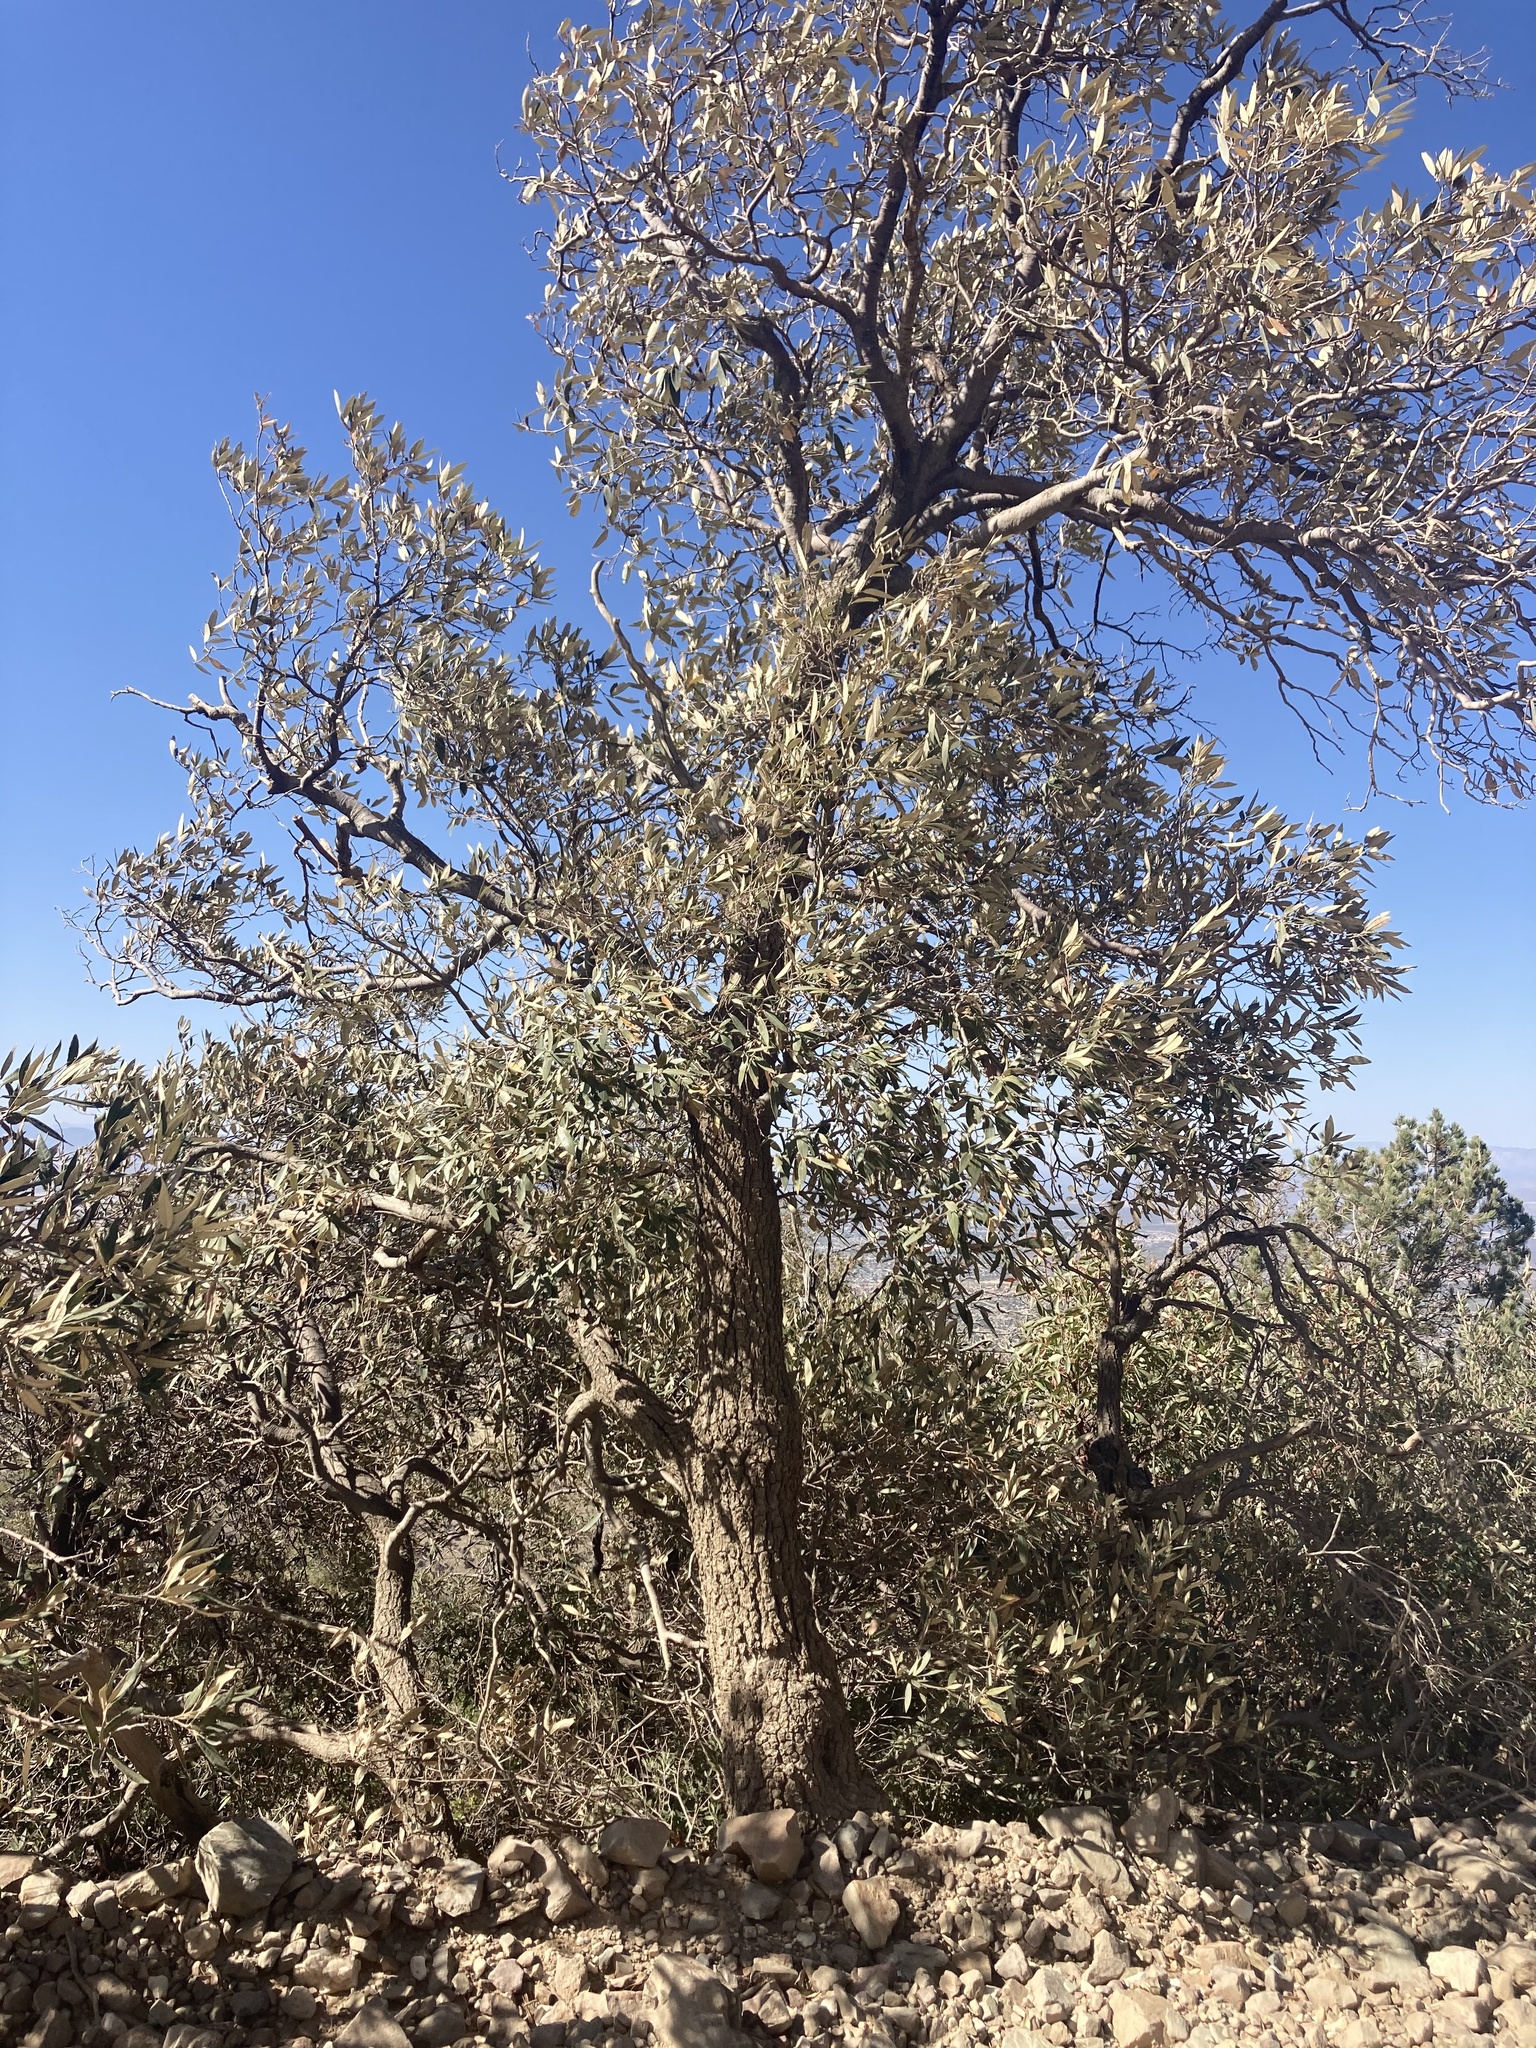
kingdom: Plantae
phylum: Tracheophyta
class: Magnoliopsida
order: Fagales
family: Fagaceae
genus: Quercus
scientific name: Quercus hypoleucoides
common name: Silverleaf oak
